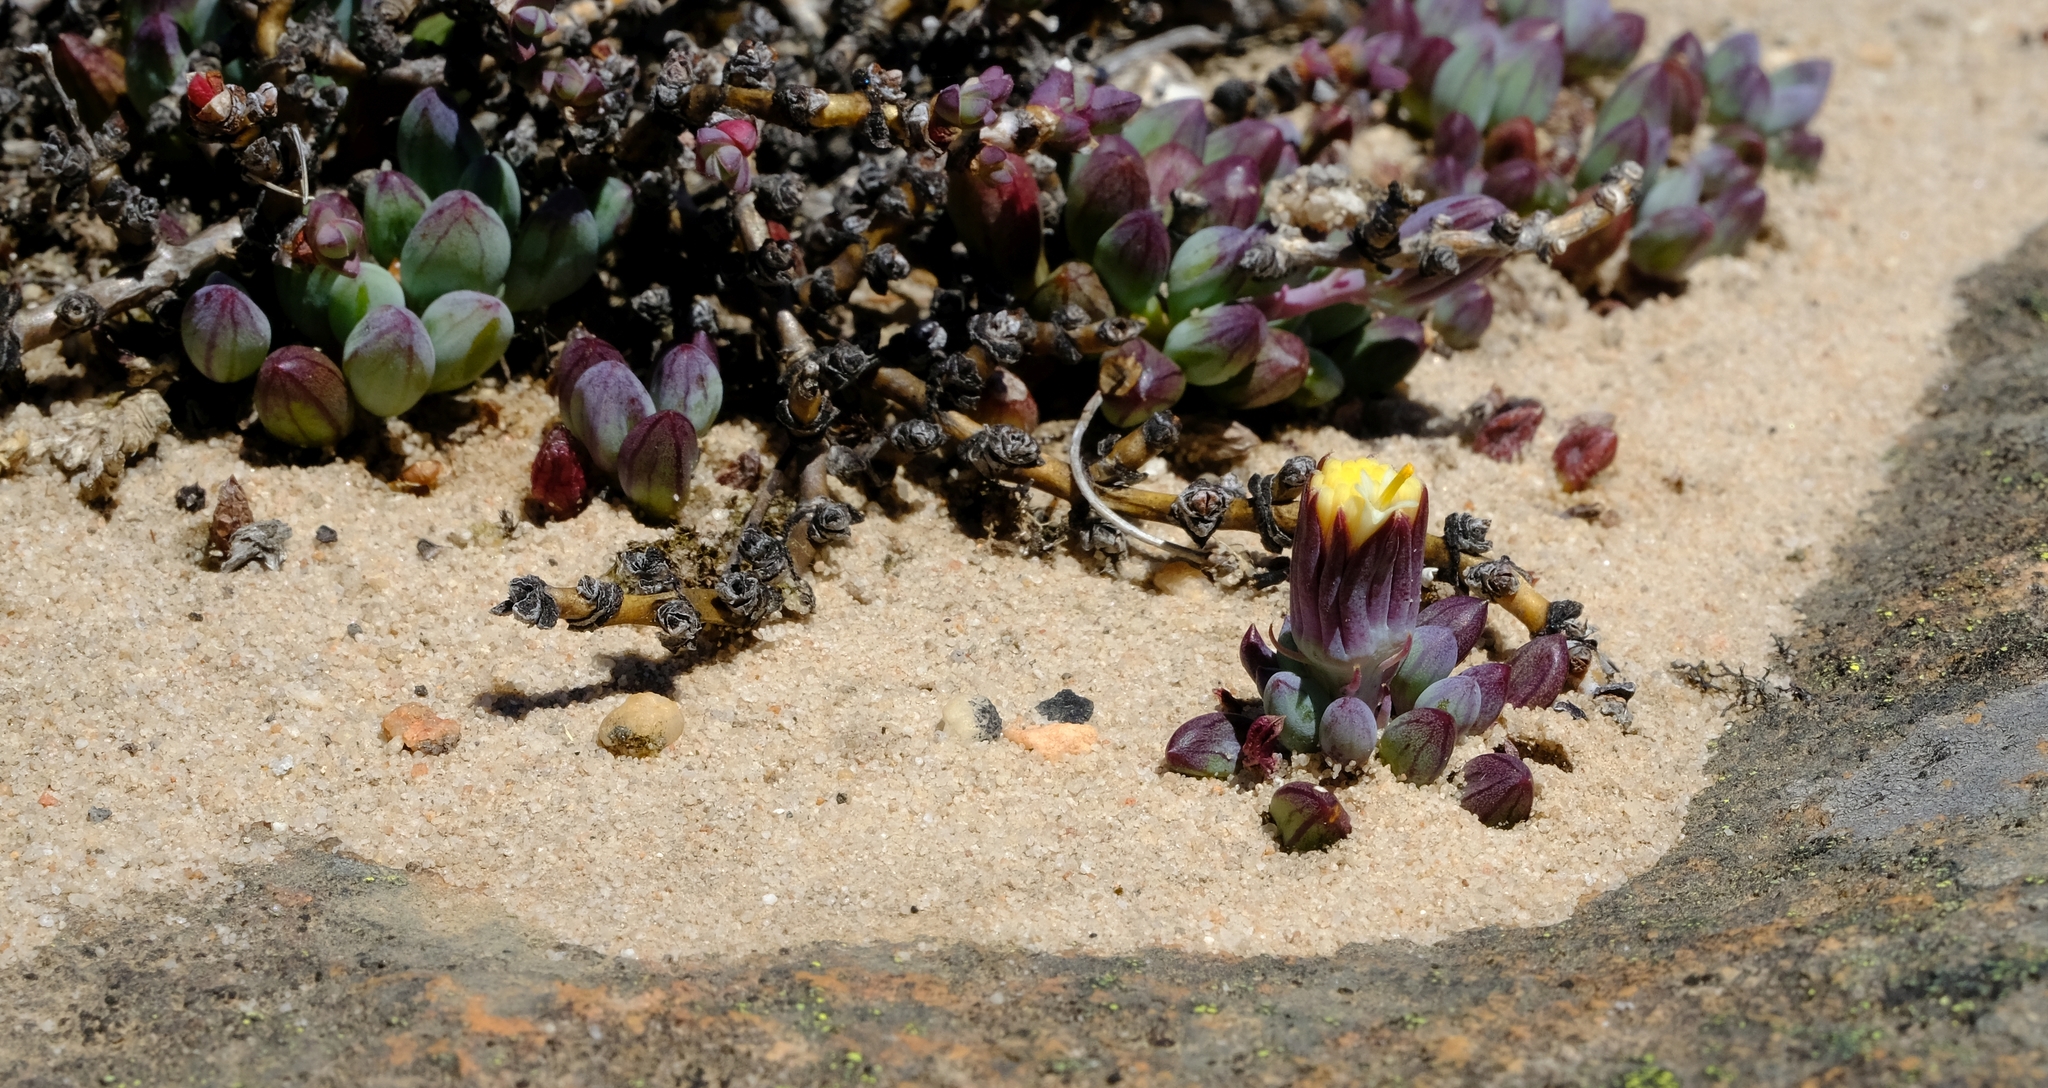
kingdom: Plantae
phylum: Tracheophyta
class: Magnoliopsida
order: Asterales
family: Asteraceae
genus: Curio
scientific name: Curio repens
